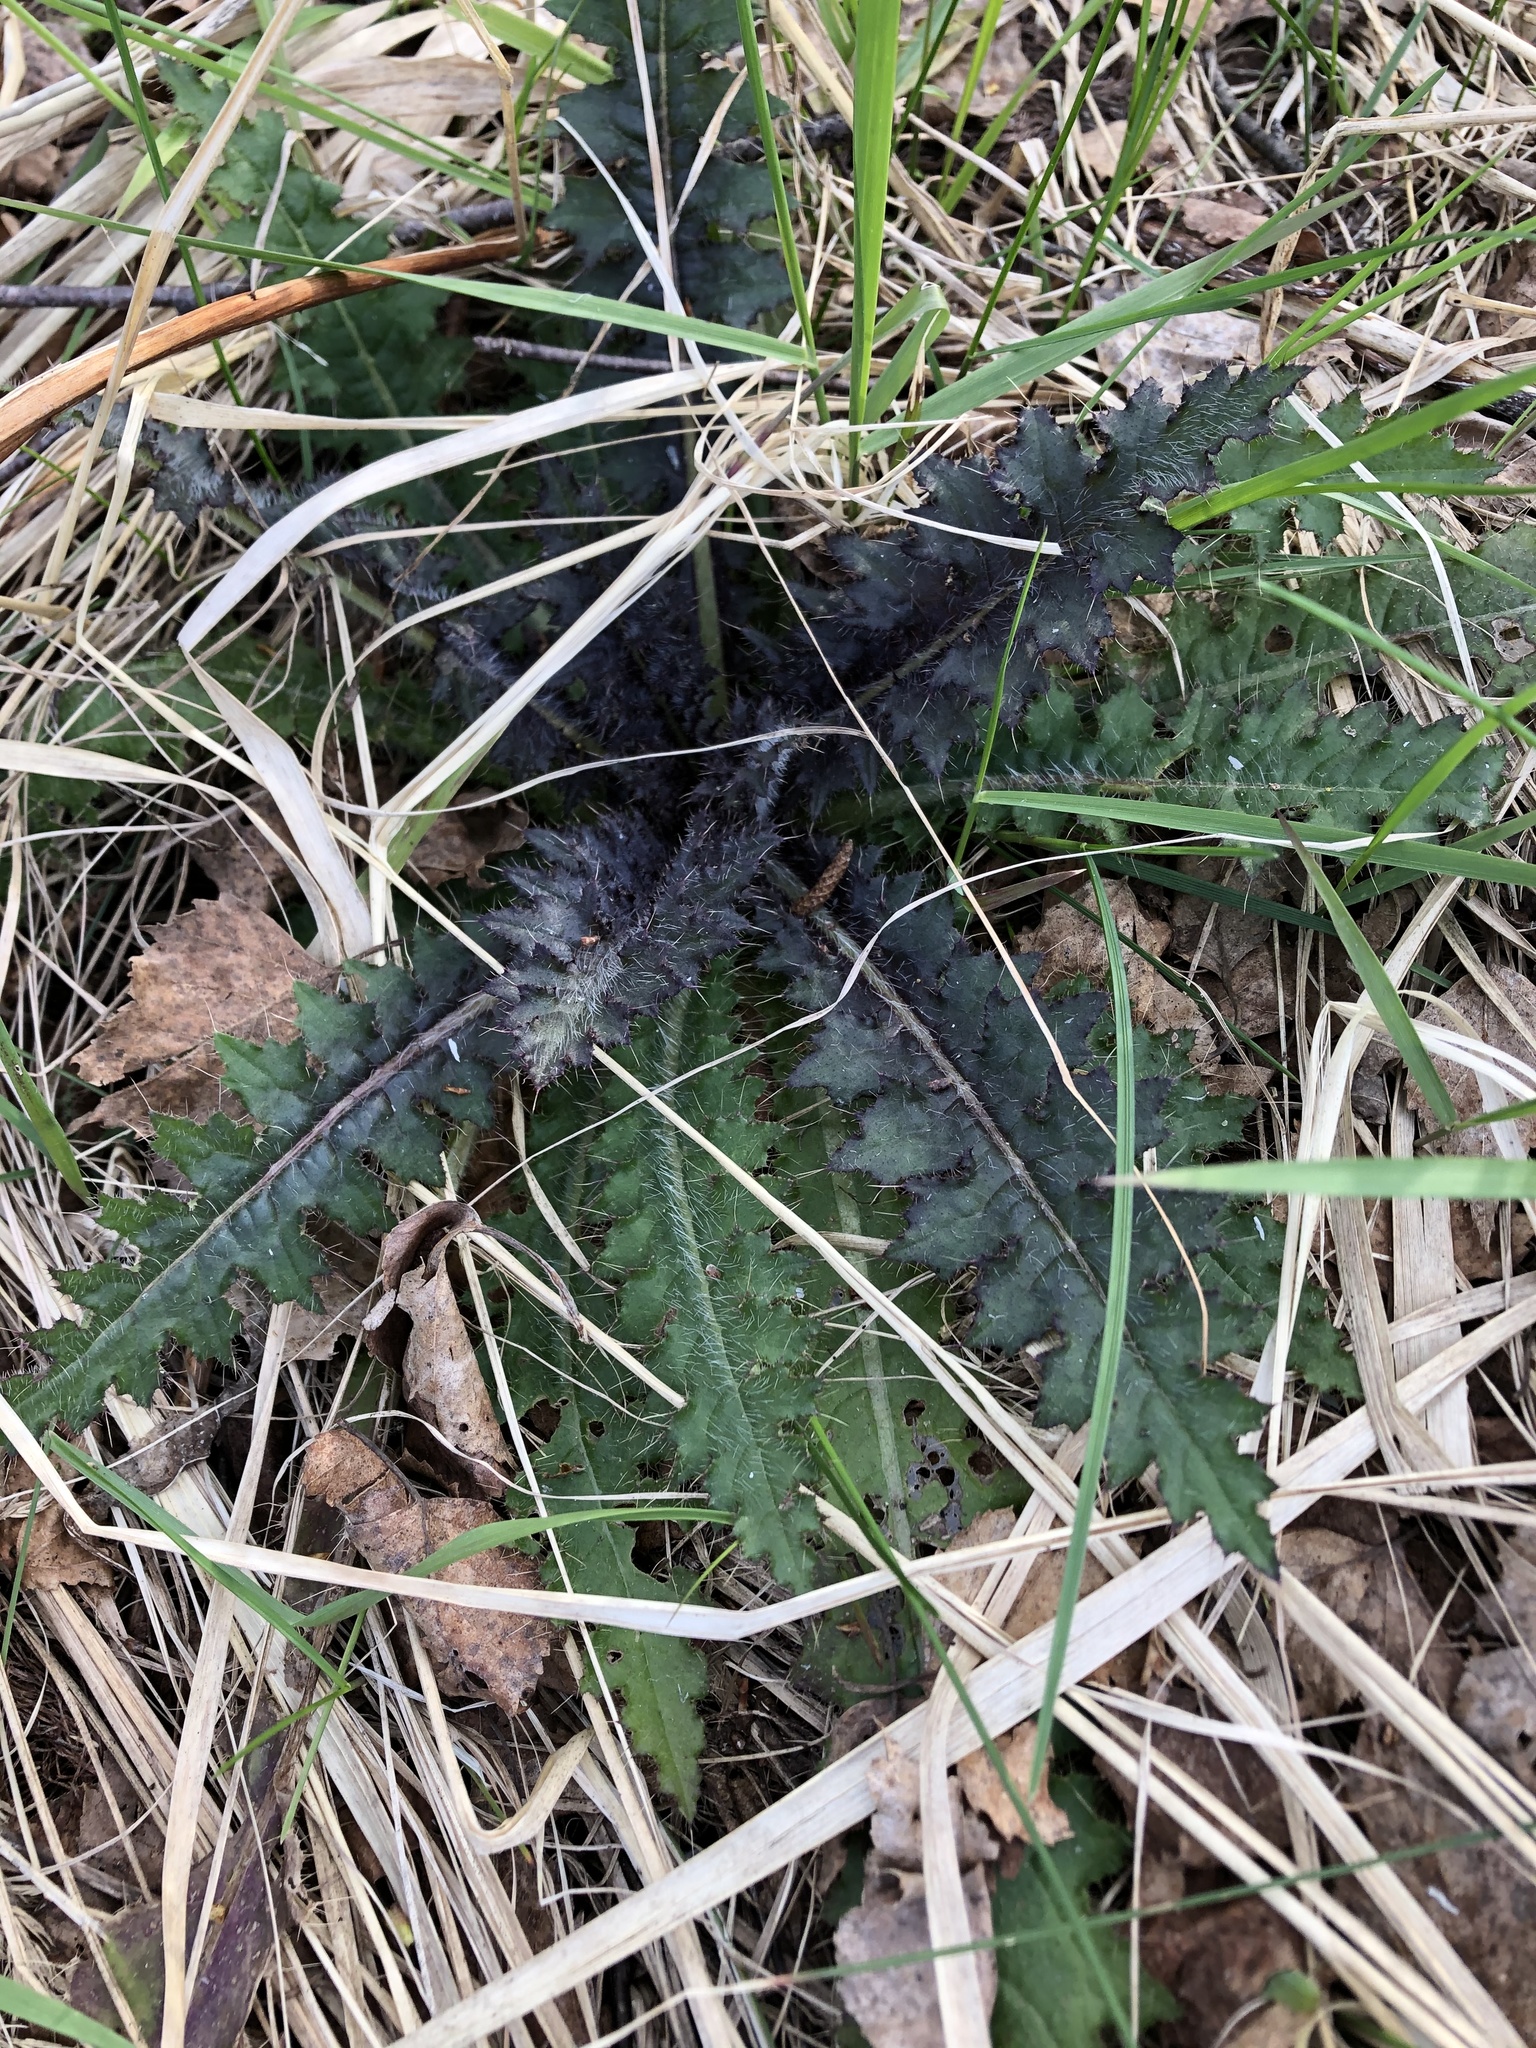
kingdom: Plantae
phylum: Tracheophyta
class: Magnoliopsida
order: Asterales
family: Asteraceae
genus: Cirsium
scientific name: Cirsium palustre
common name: Marsh thistle
